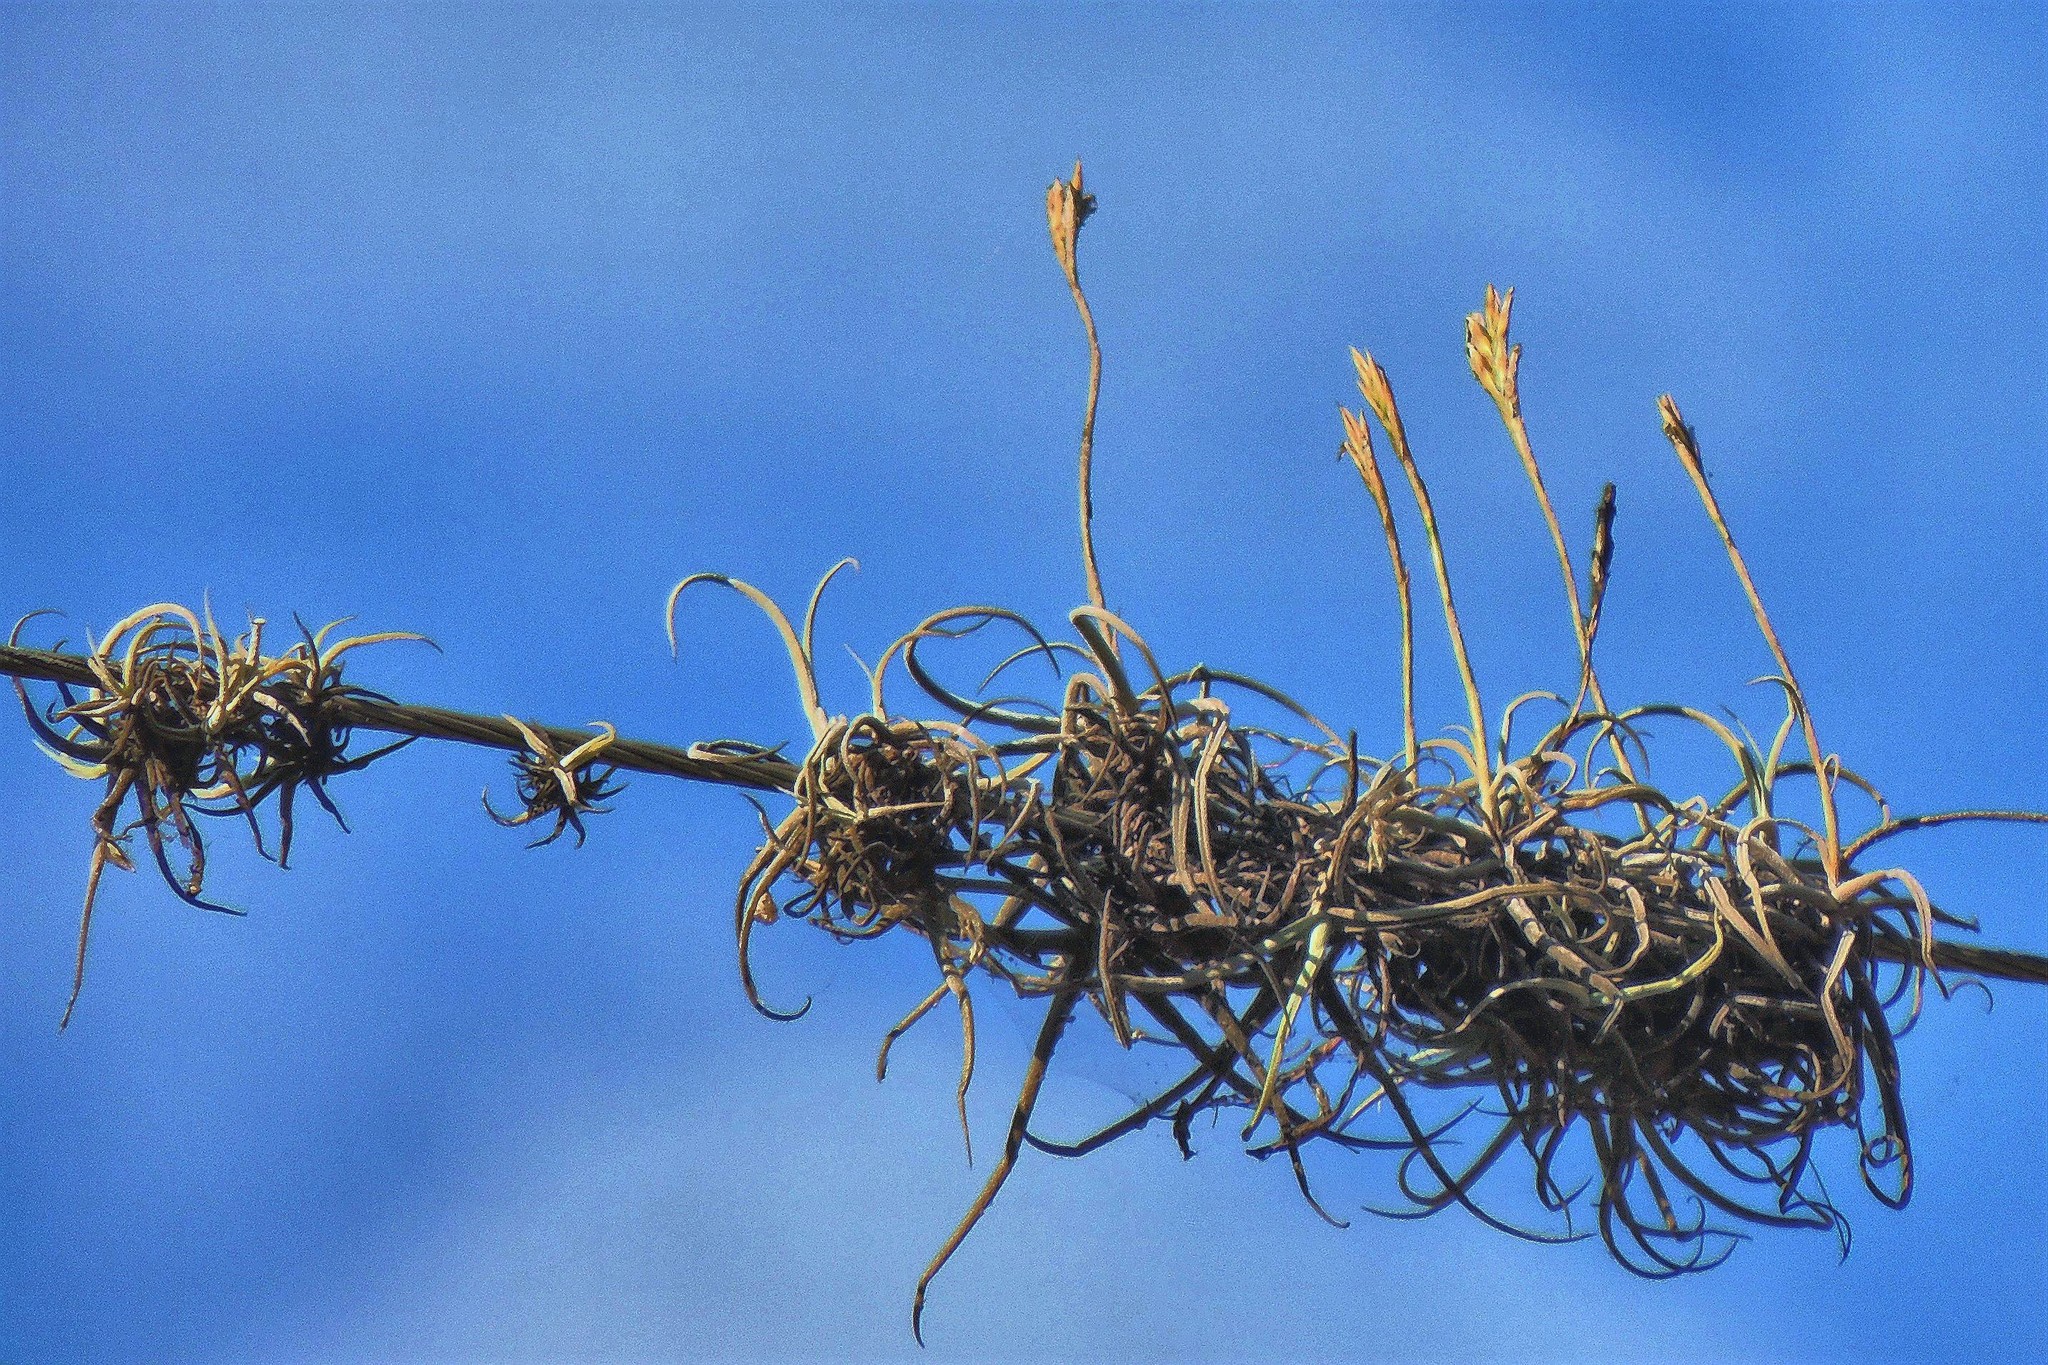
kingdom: Plantae
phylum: Tracheophyta
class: Liliopsida
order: Poales
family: Bromeliaceae
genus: Tillandsia
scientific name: Tillandsia reichenbachii
